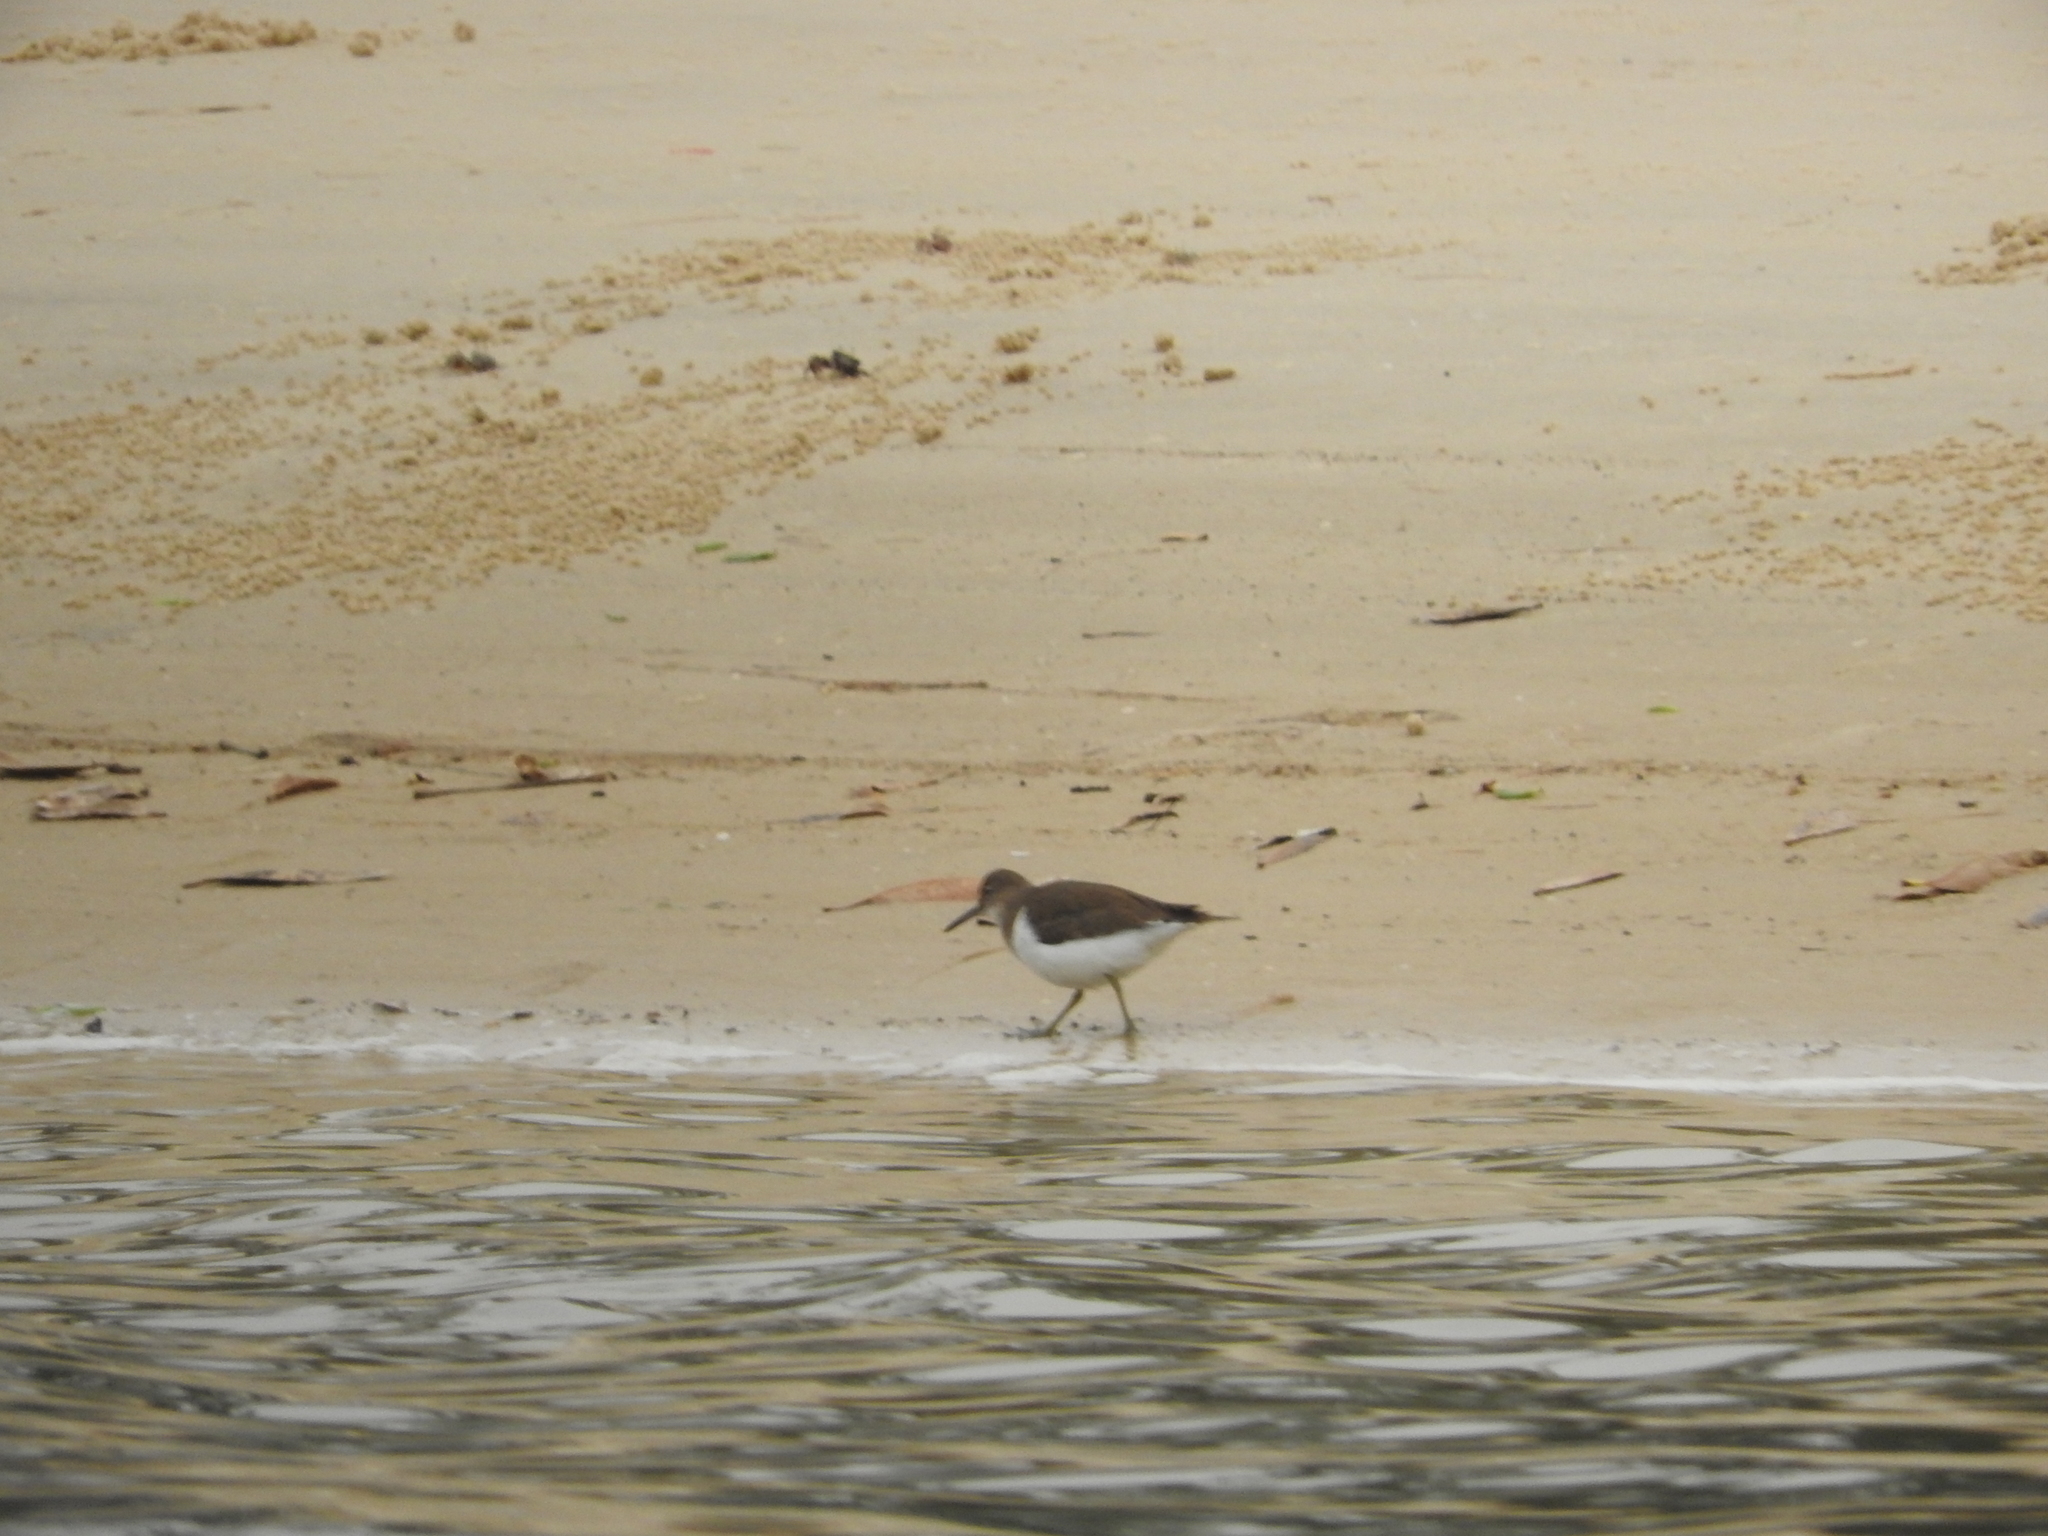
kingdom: Animalia
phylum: Chordata
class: Aves
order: Charadriiformes
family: Scolopacidae
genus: Actitis
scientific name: Actitis hypoleucos
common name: Common sandpiper
